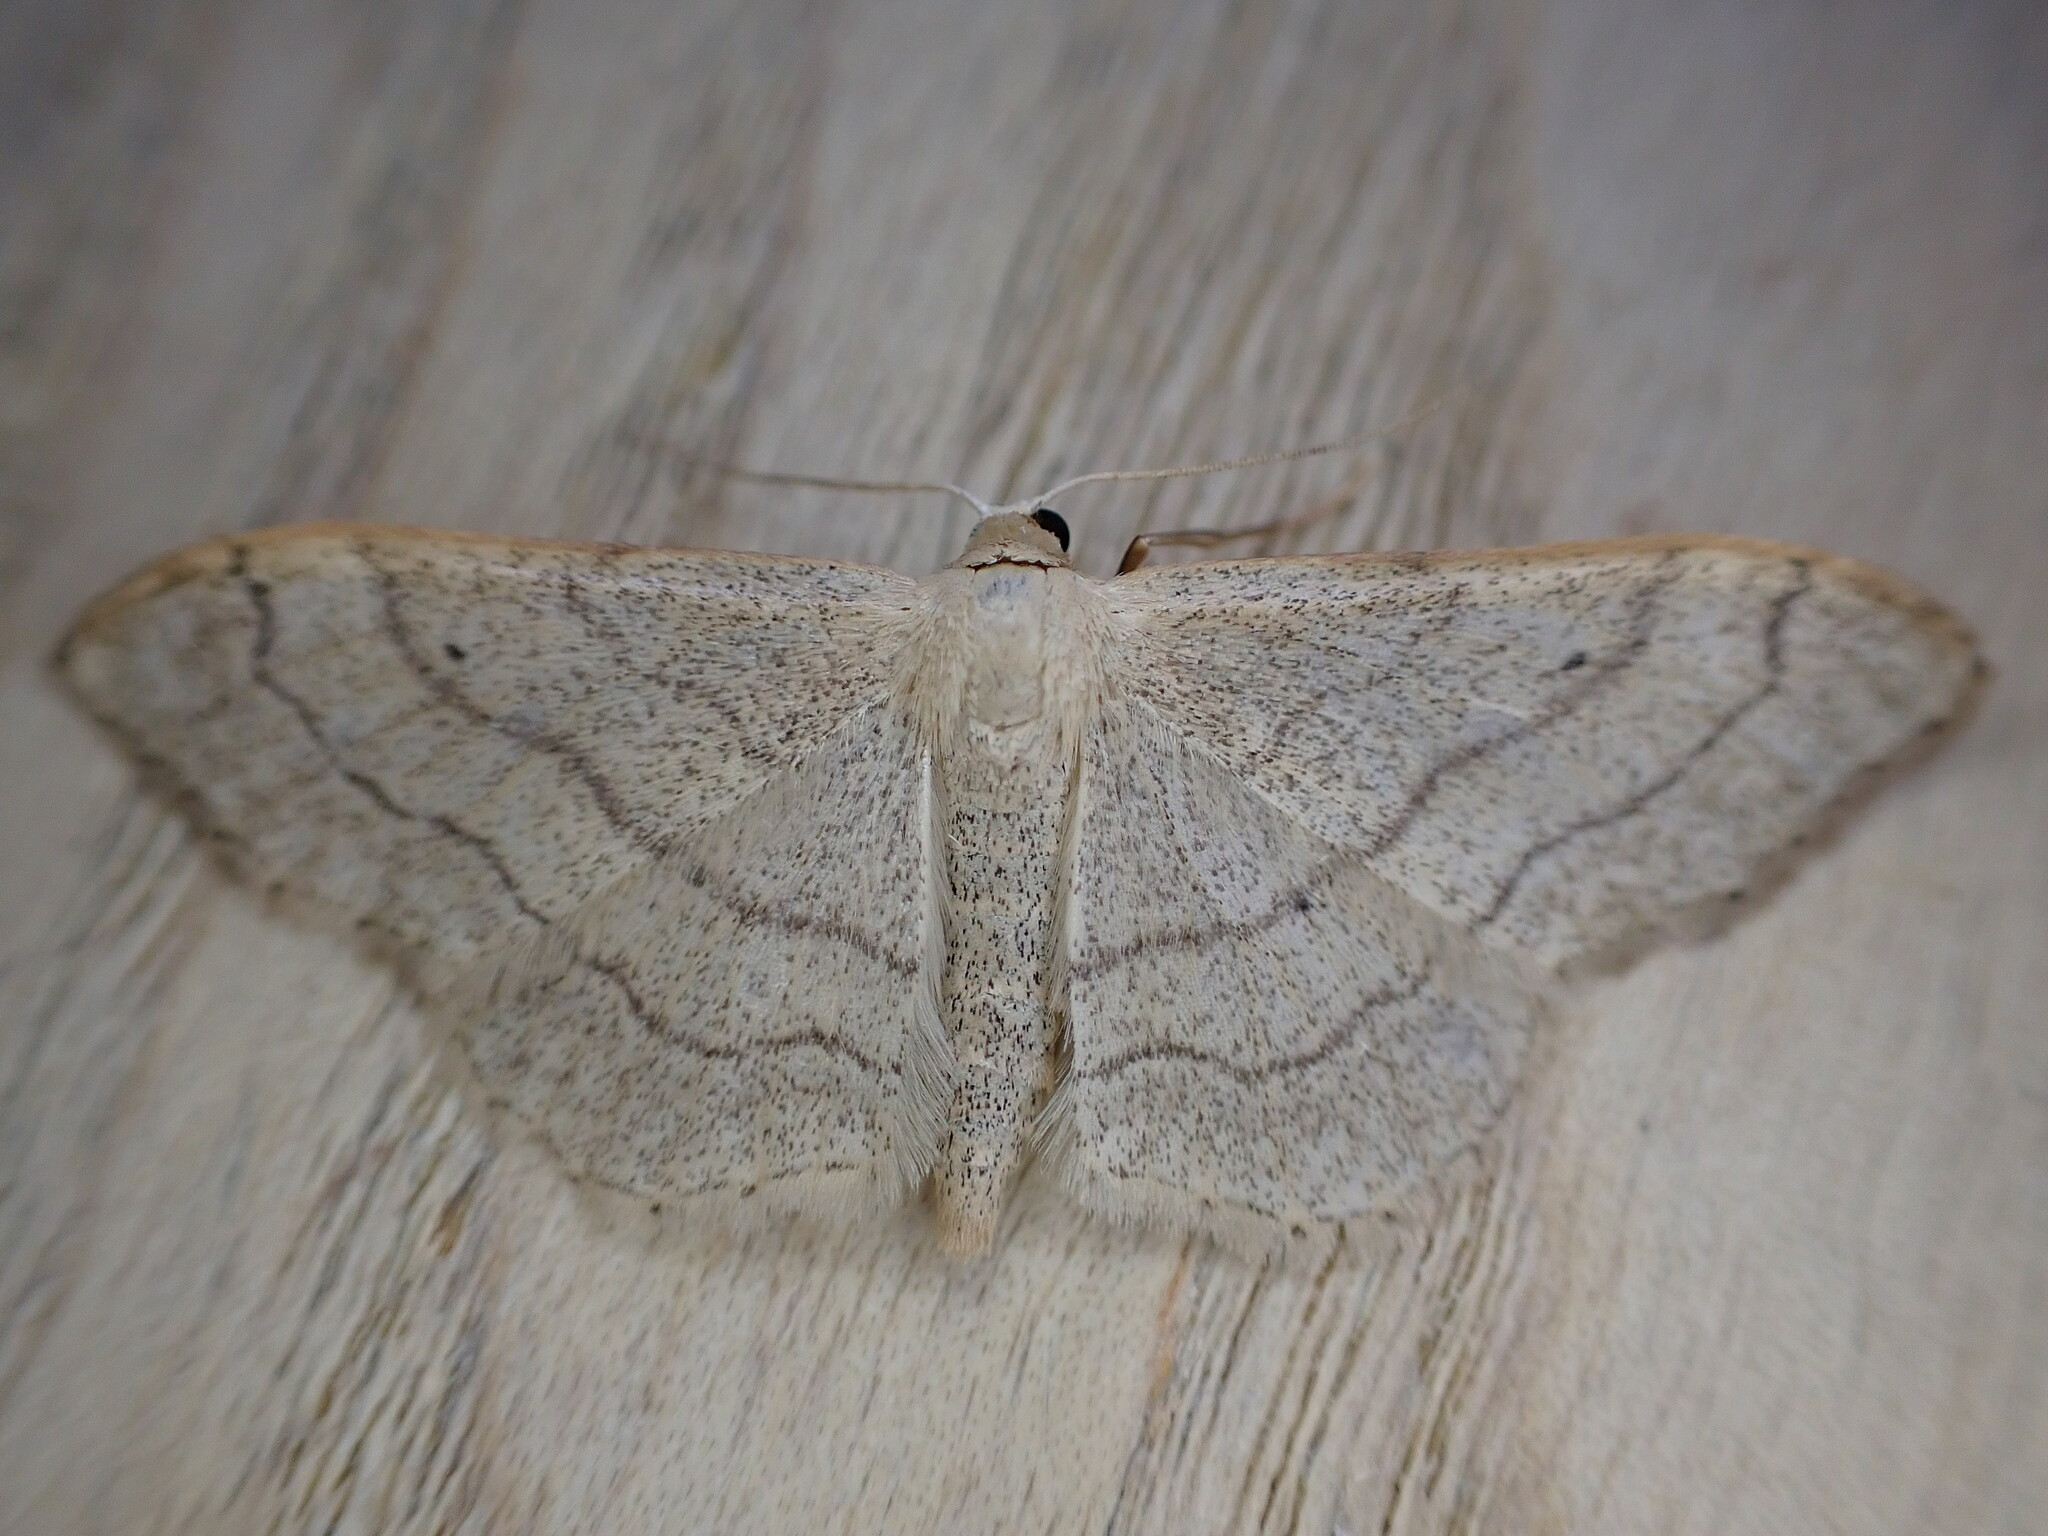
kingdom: Animalia
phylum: Arthropoda
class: Insecta
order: Lepidoptera
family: Geometridae
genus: Idaea
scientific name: Idaea aversata
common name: Riband wave
